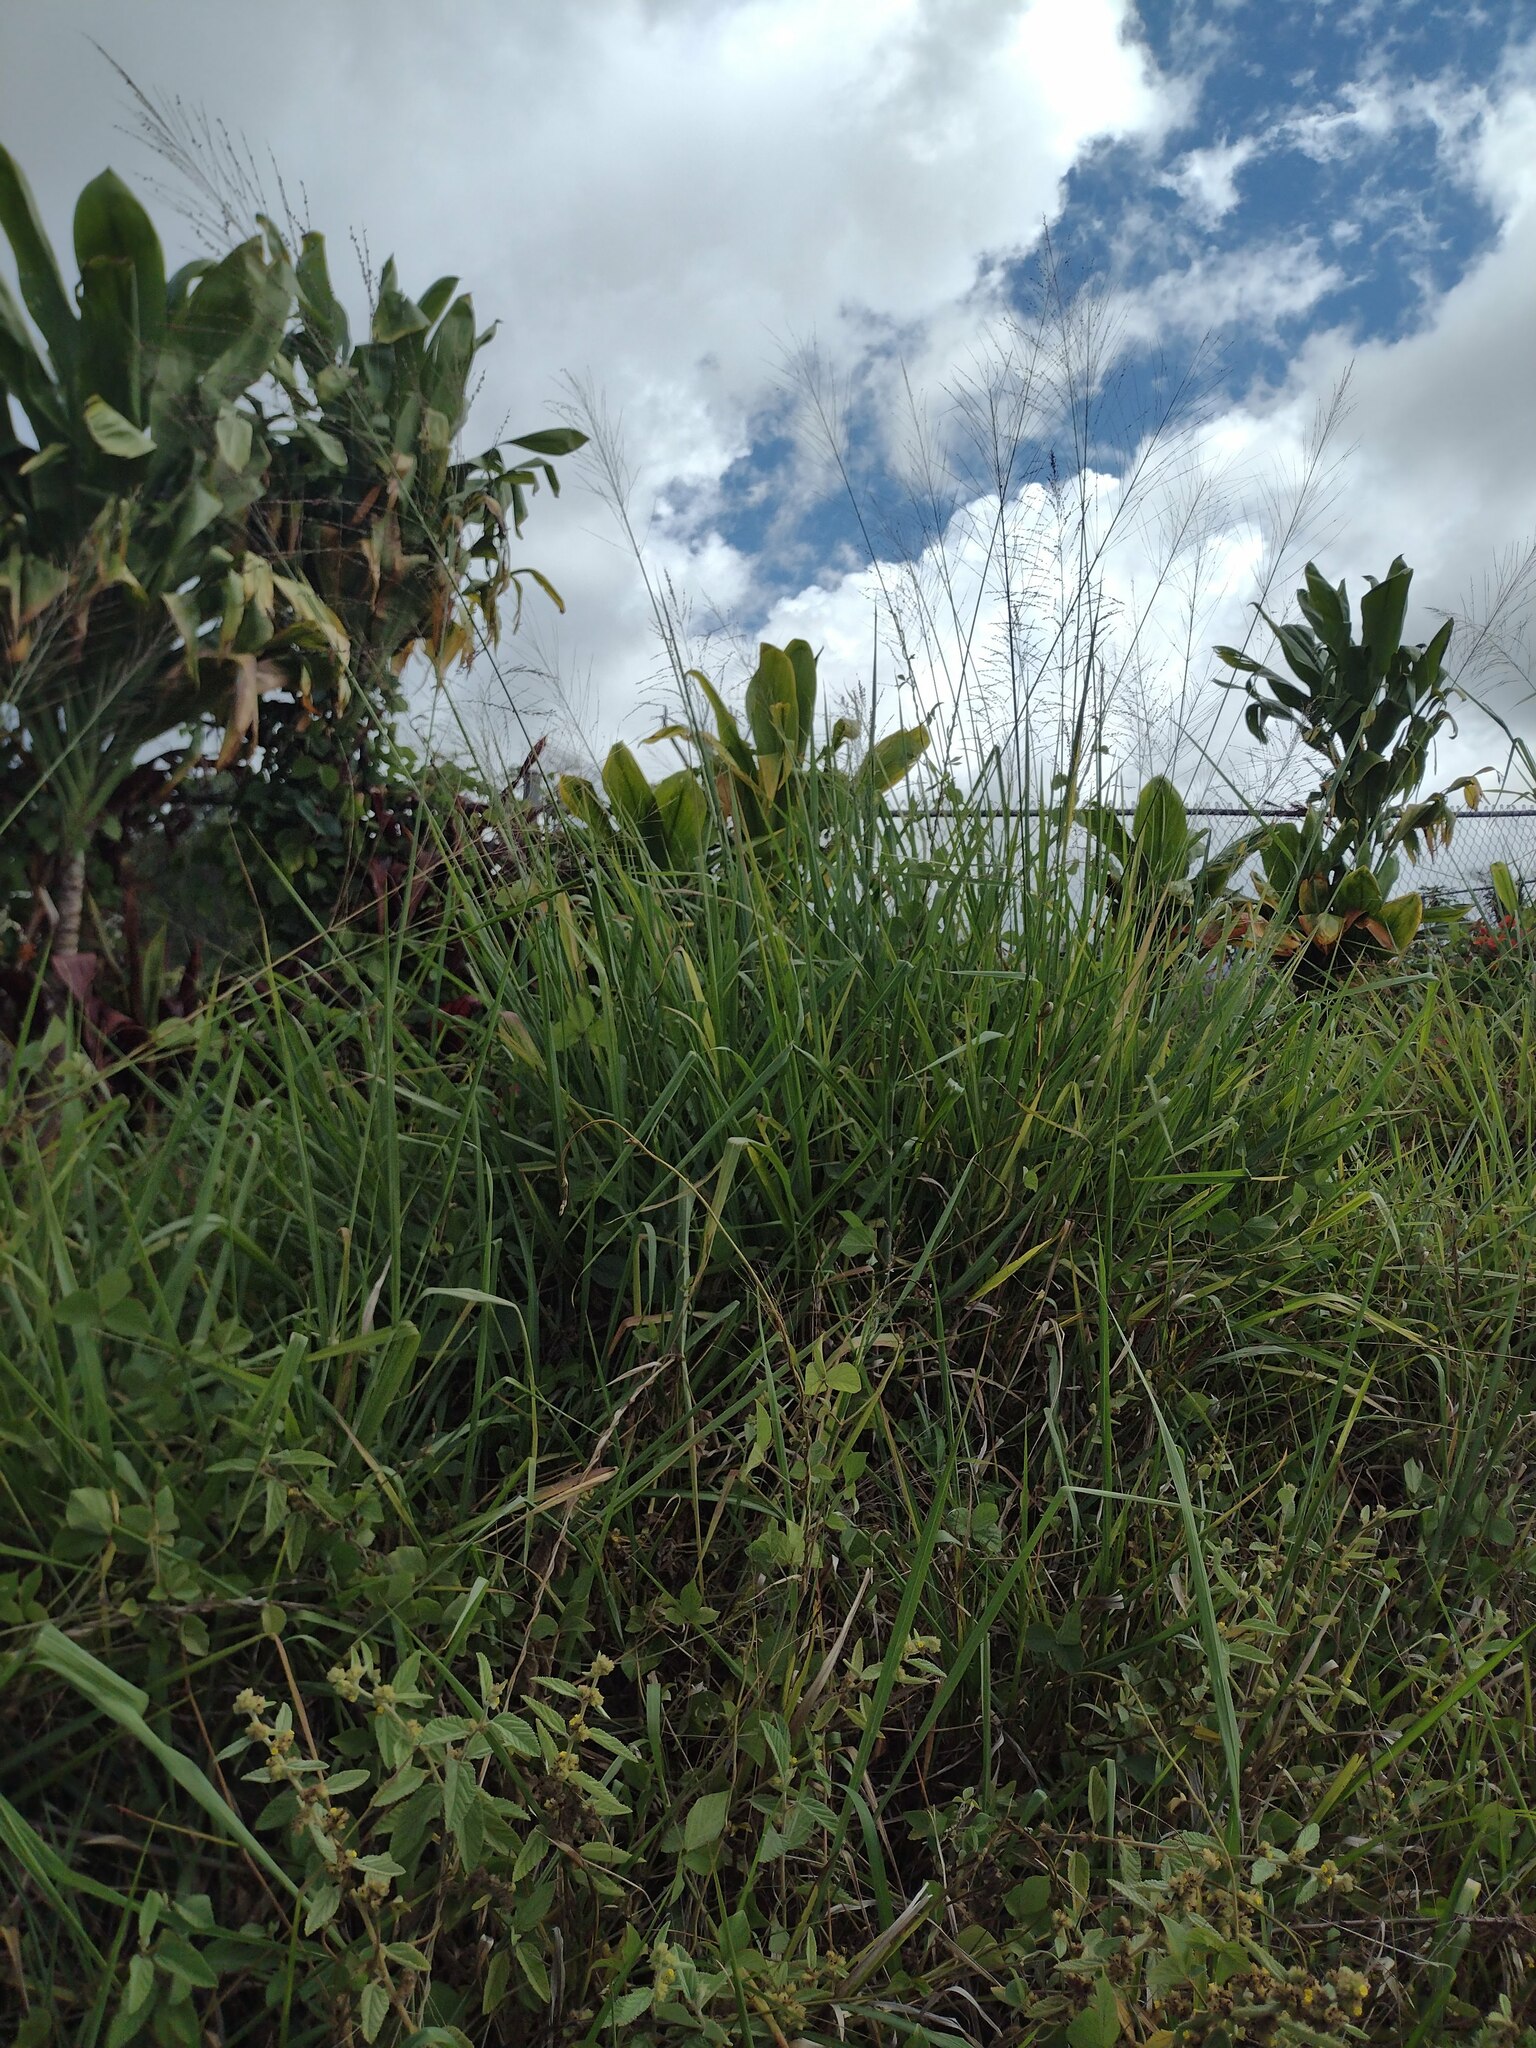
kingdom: Plantae
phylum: Tracheophyta
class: Liliopsida
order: Poales
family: Poaceae
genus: Megathyrsus
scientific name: Megathyrsus maximus
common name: Guineagrass
